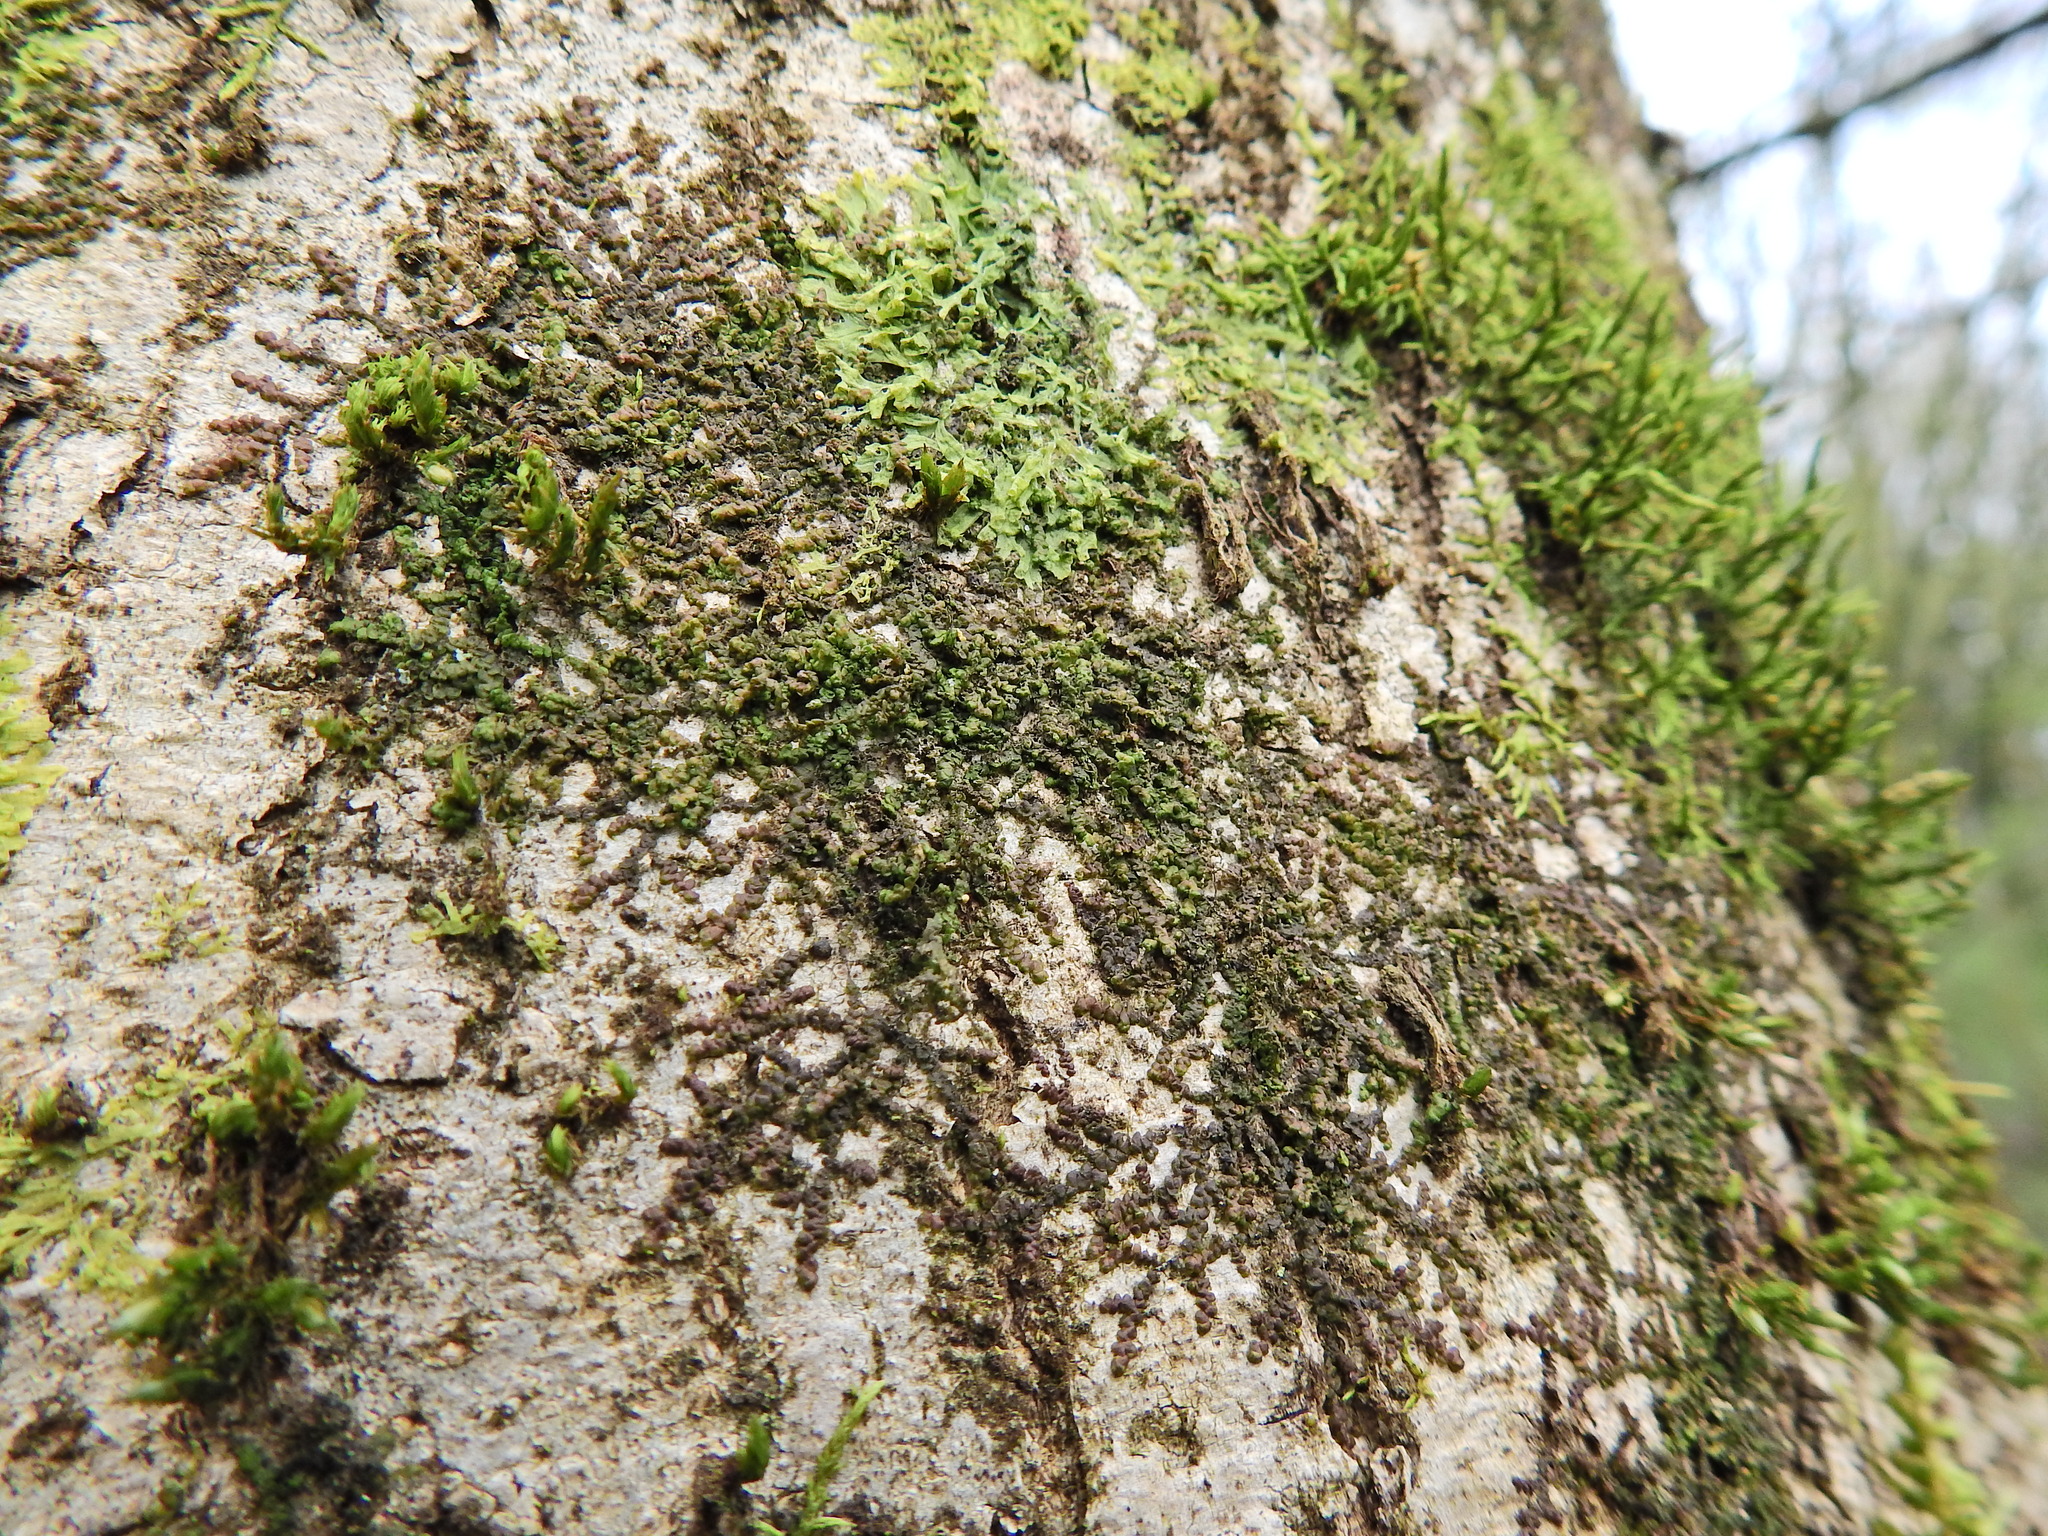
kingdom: Plantae
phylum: Marchantiophyta
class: Jungermanniopsida
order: Porellales
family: Frullaniaceae
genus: Frullania
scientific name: Frullania dilatata
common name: Dilated scalewort
